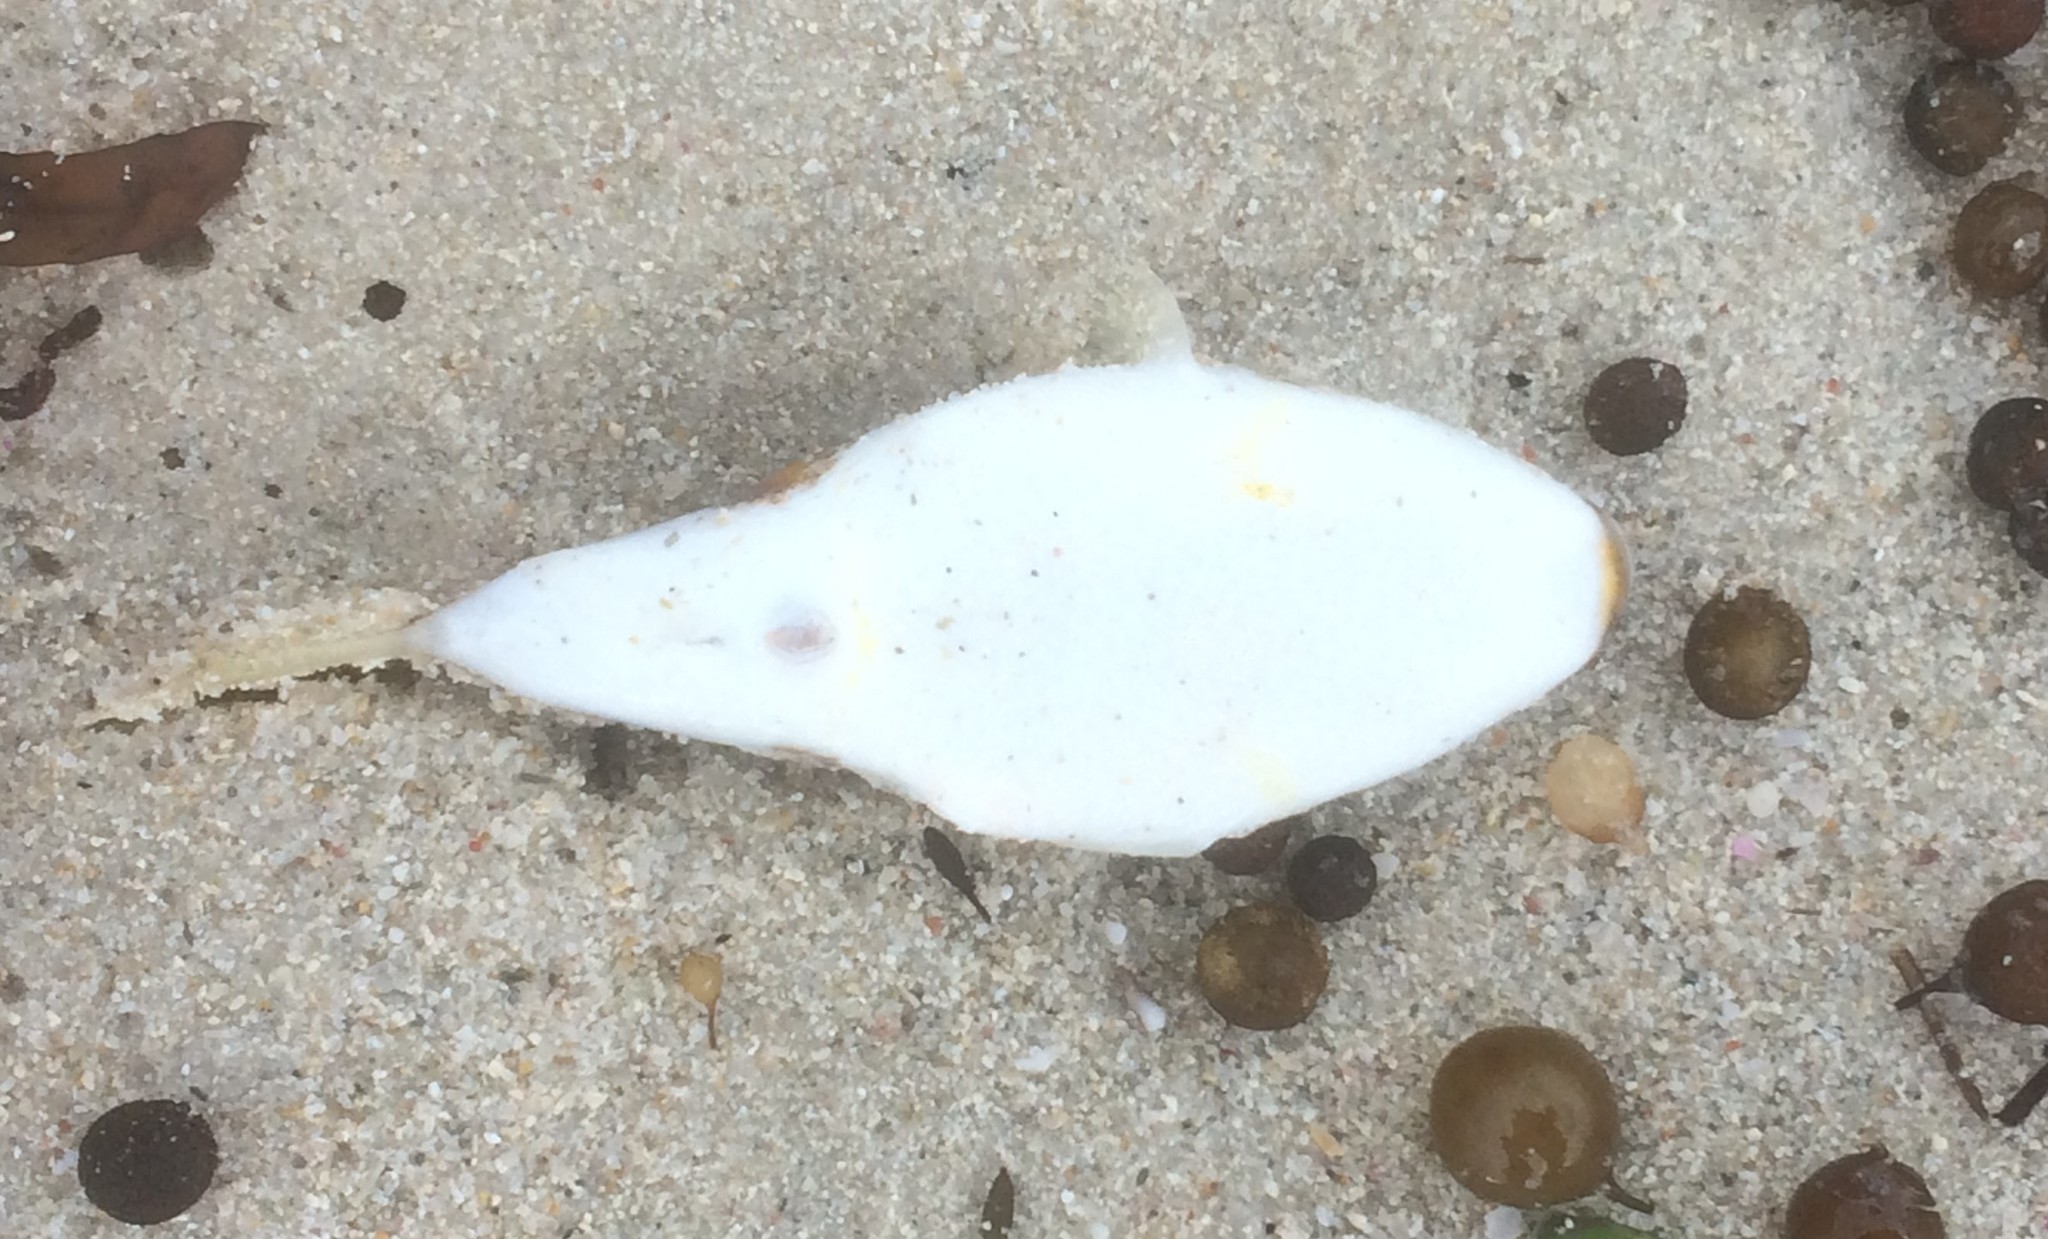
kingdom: Animalia
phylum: Chordata
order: Tetraodontiformes
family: Tetraodontidae
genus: Polyspina
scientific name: Polyspina piosae
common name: Orange-barred pufferfish
